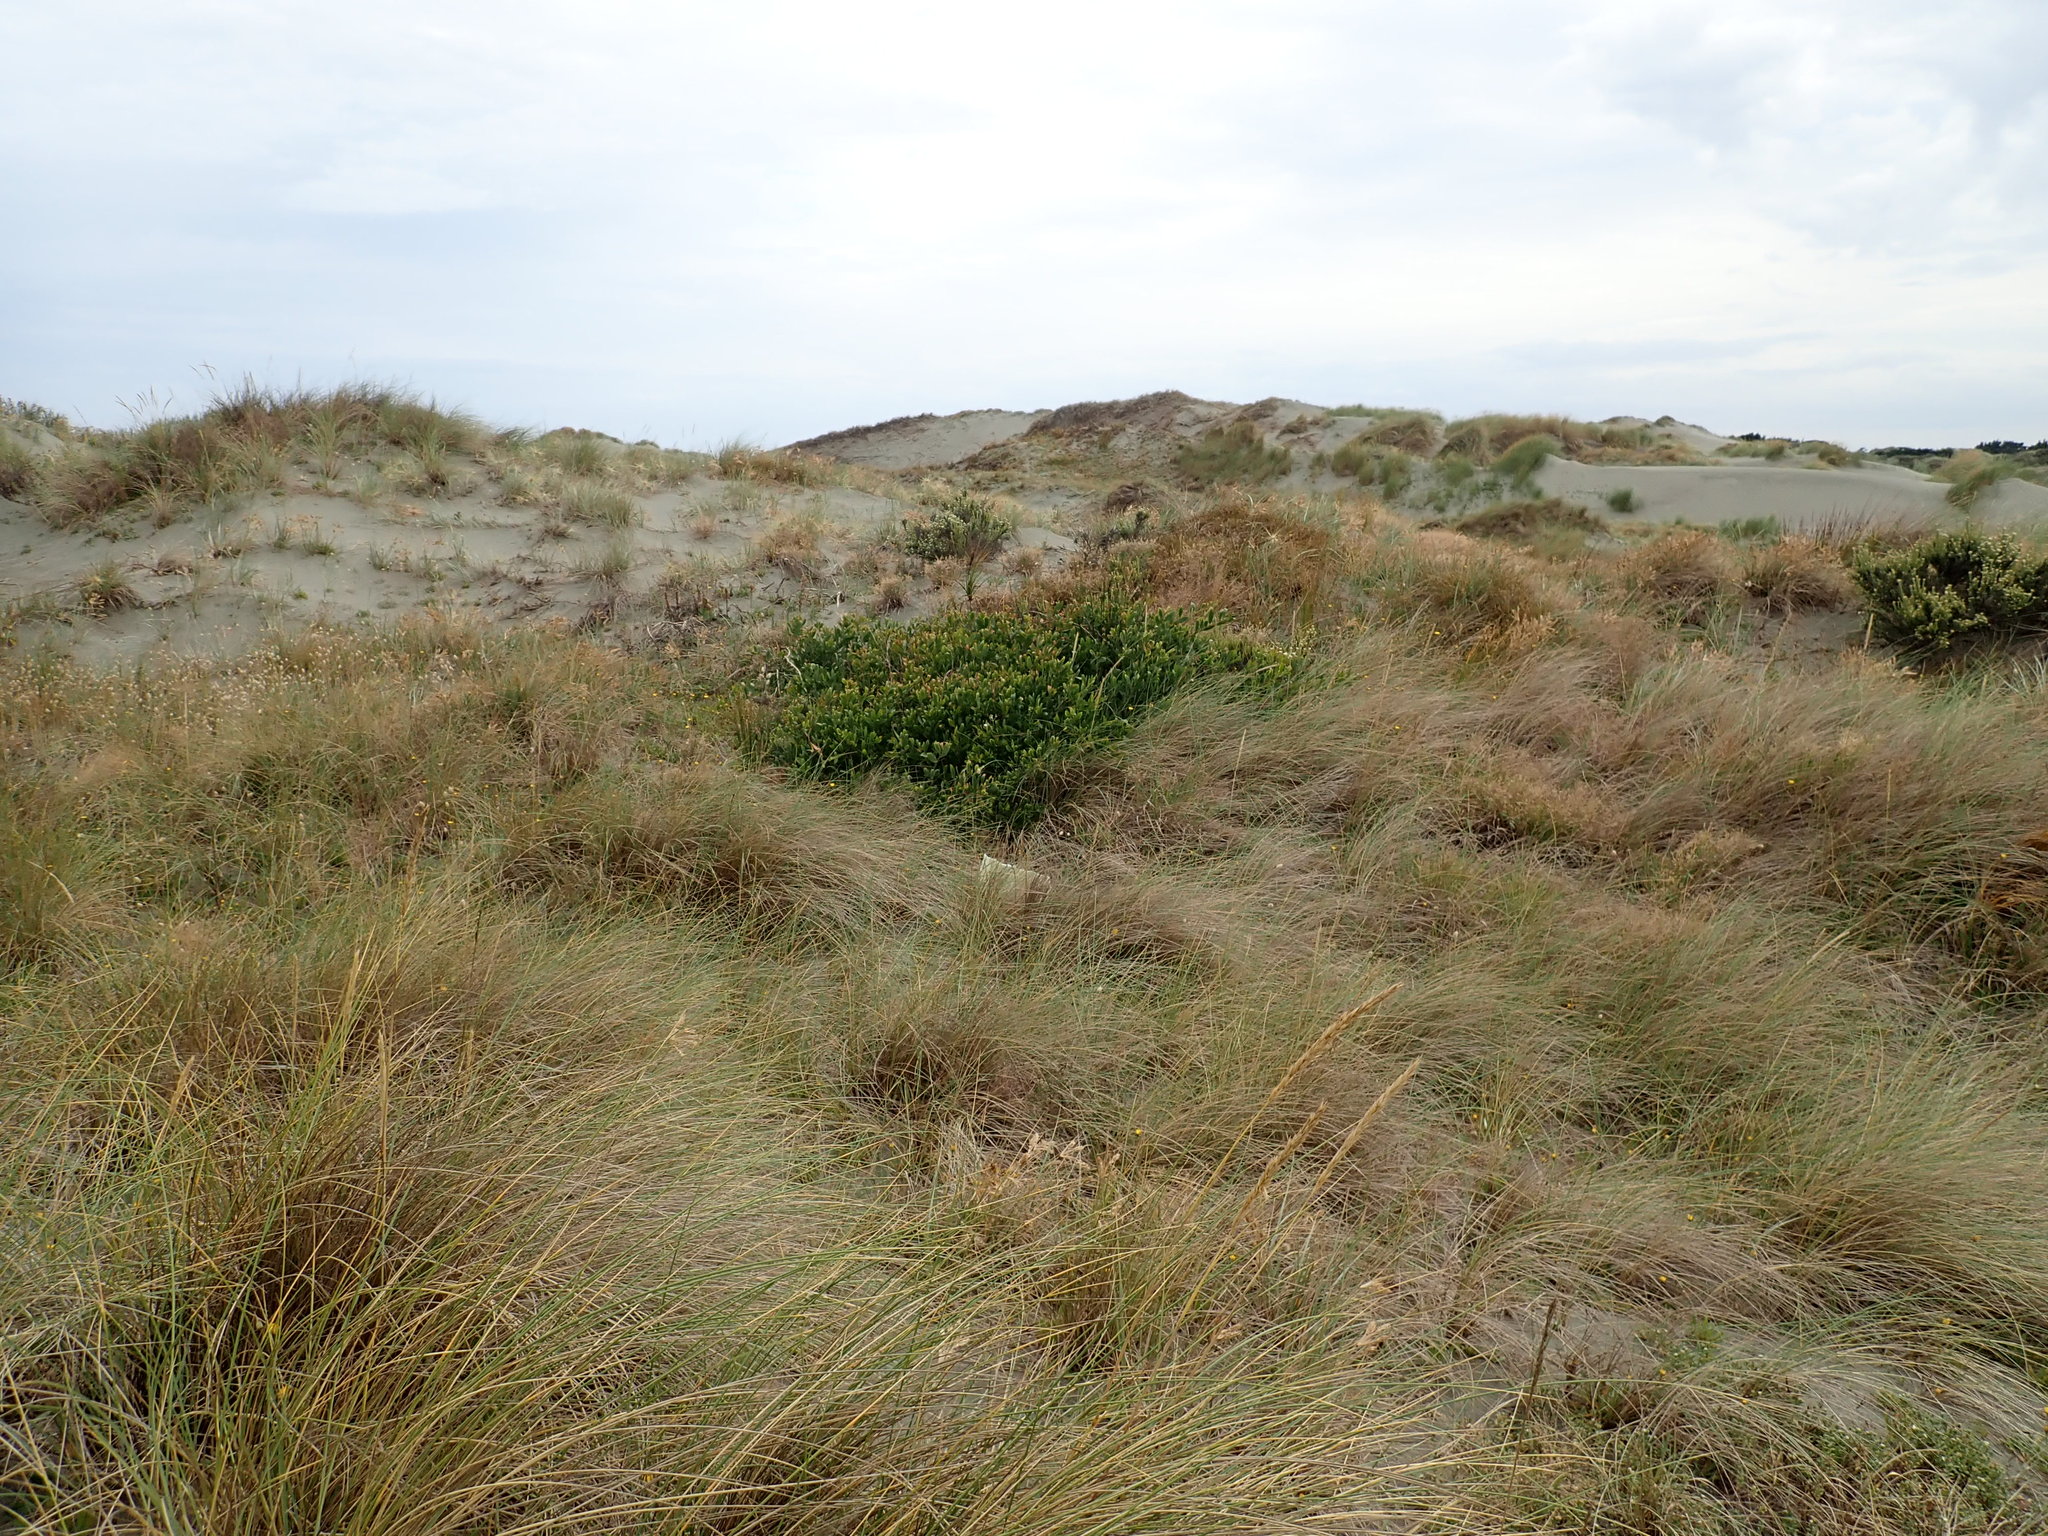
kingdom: Plantae
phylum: Tracheophyta
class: Magnoliopsida
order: Fabales
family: Fabaceae
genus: Acacia
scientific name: Acacia longifolia
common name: Sydney golden wattle
